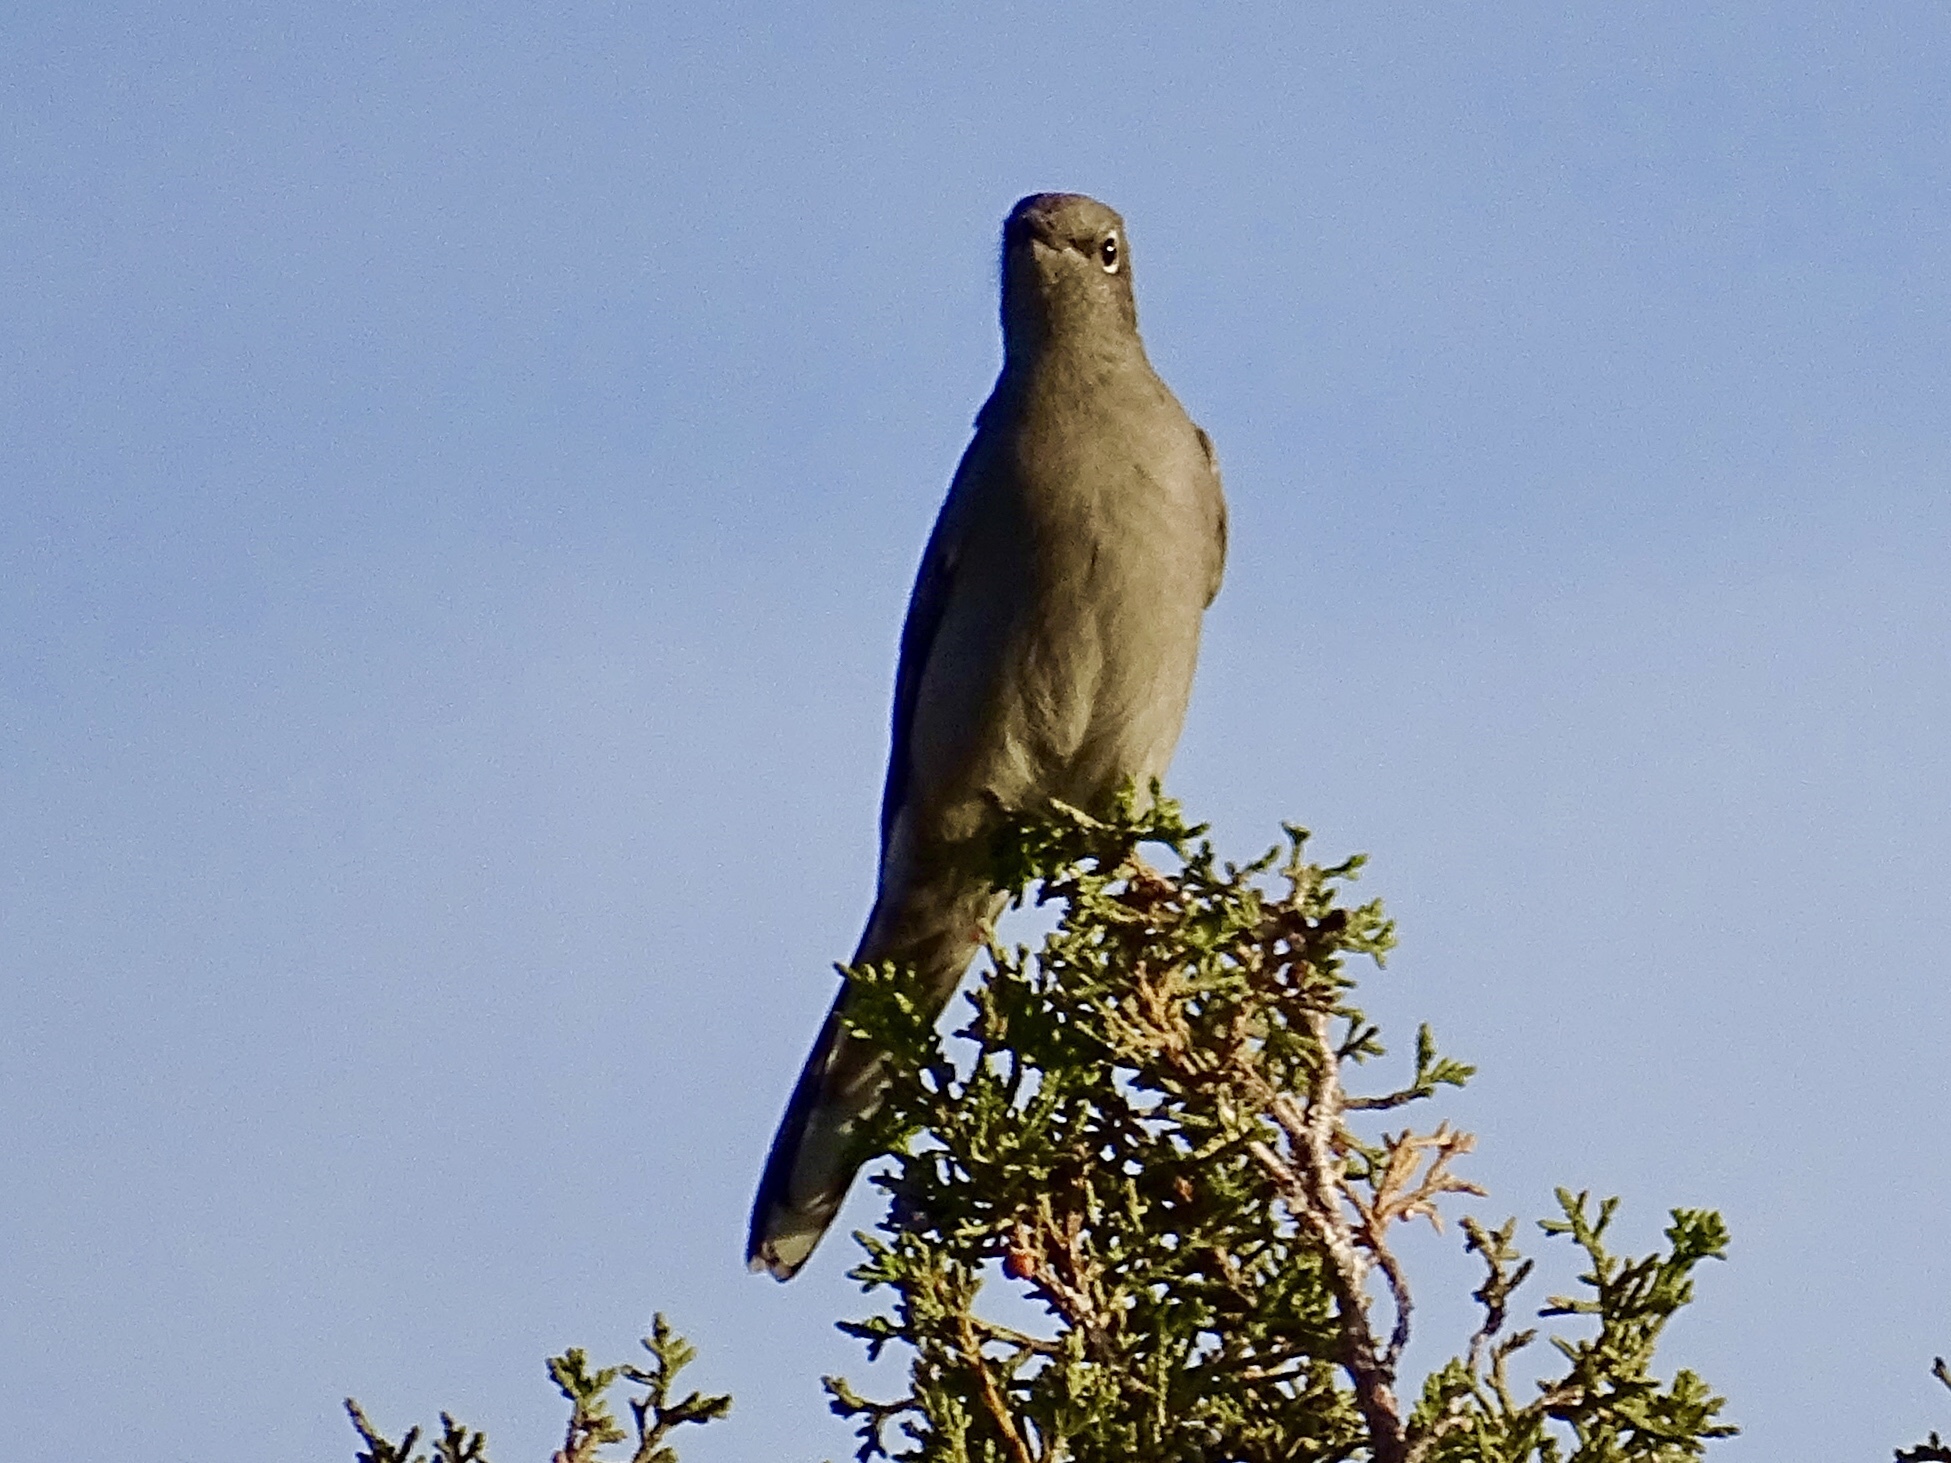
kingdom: Animalia
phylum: Chordata
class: Aves
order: Passeriformes
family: Turdidae
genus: Myadestes
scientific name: Myadestes townsendi
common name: Townsend's solitaire
